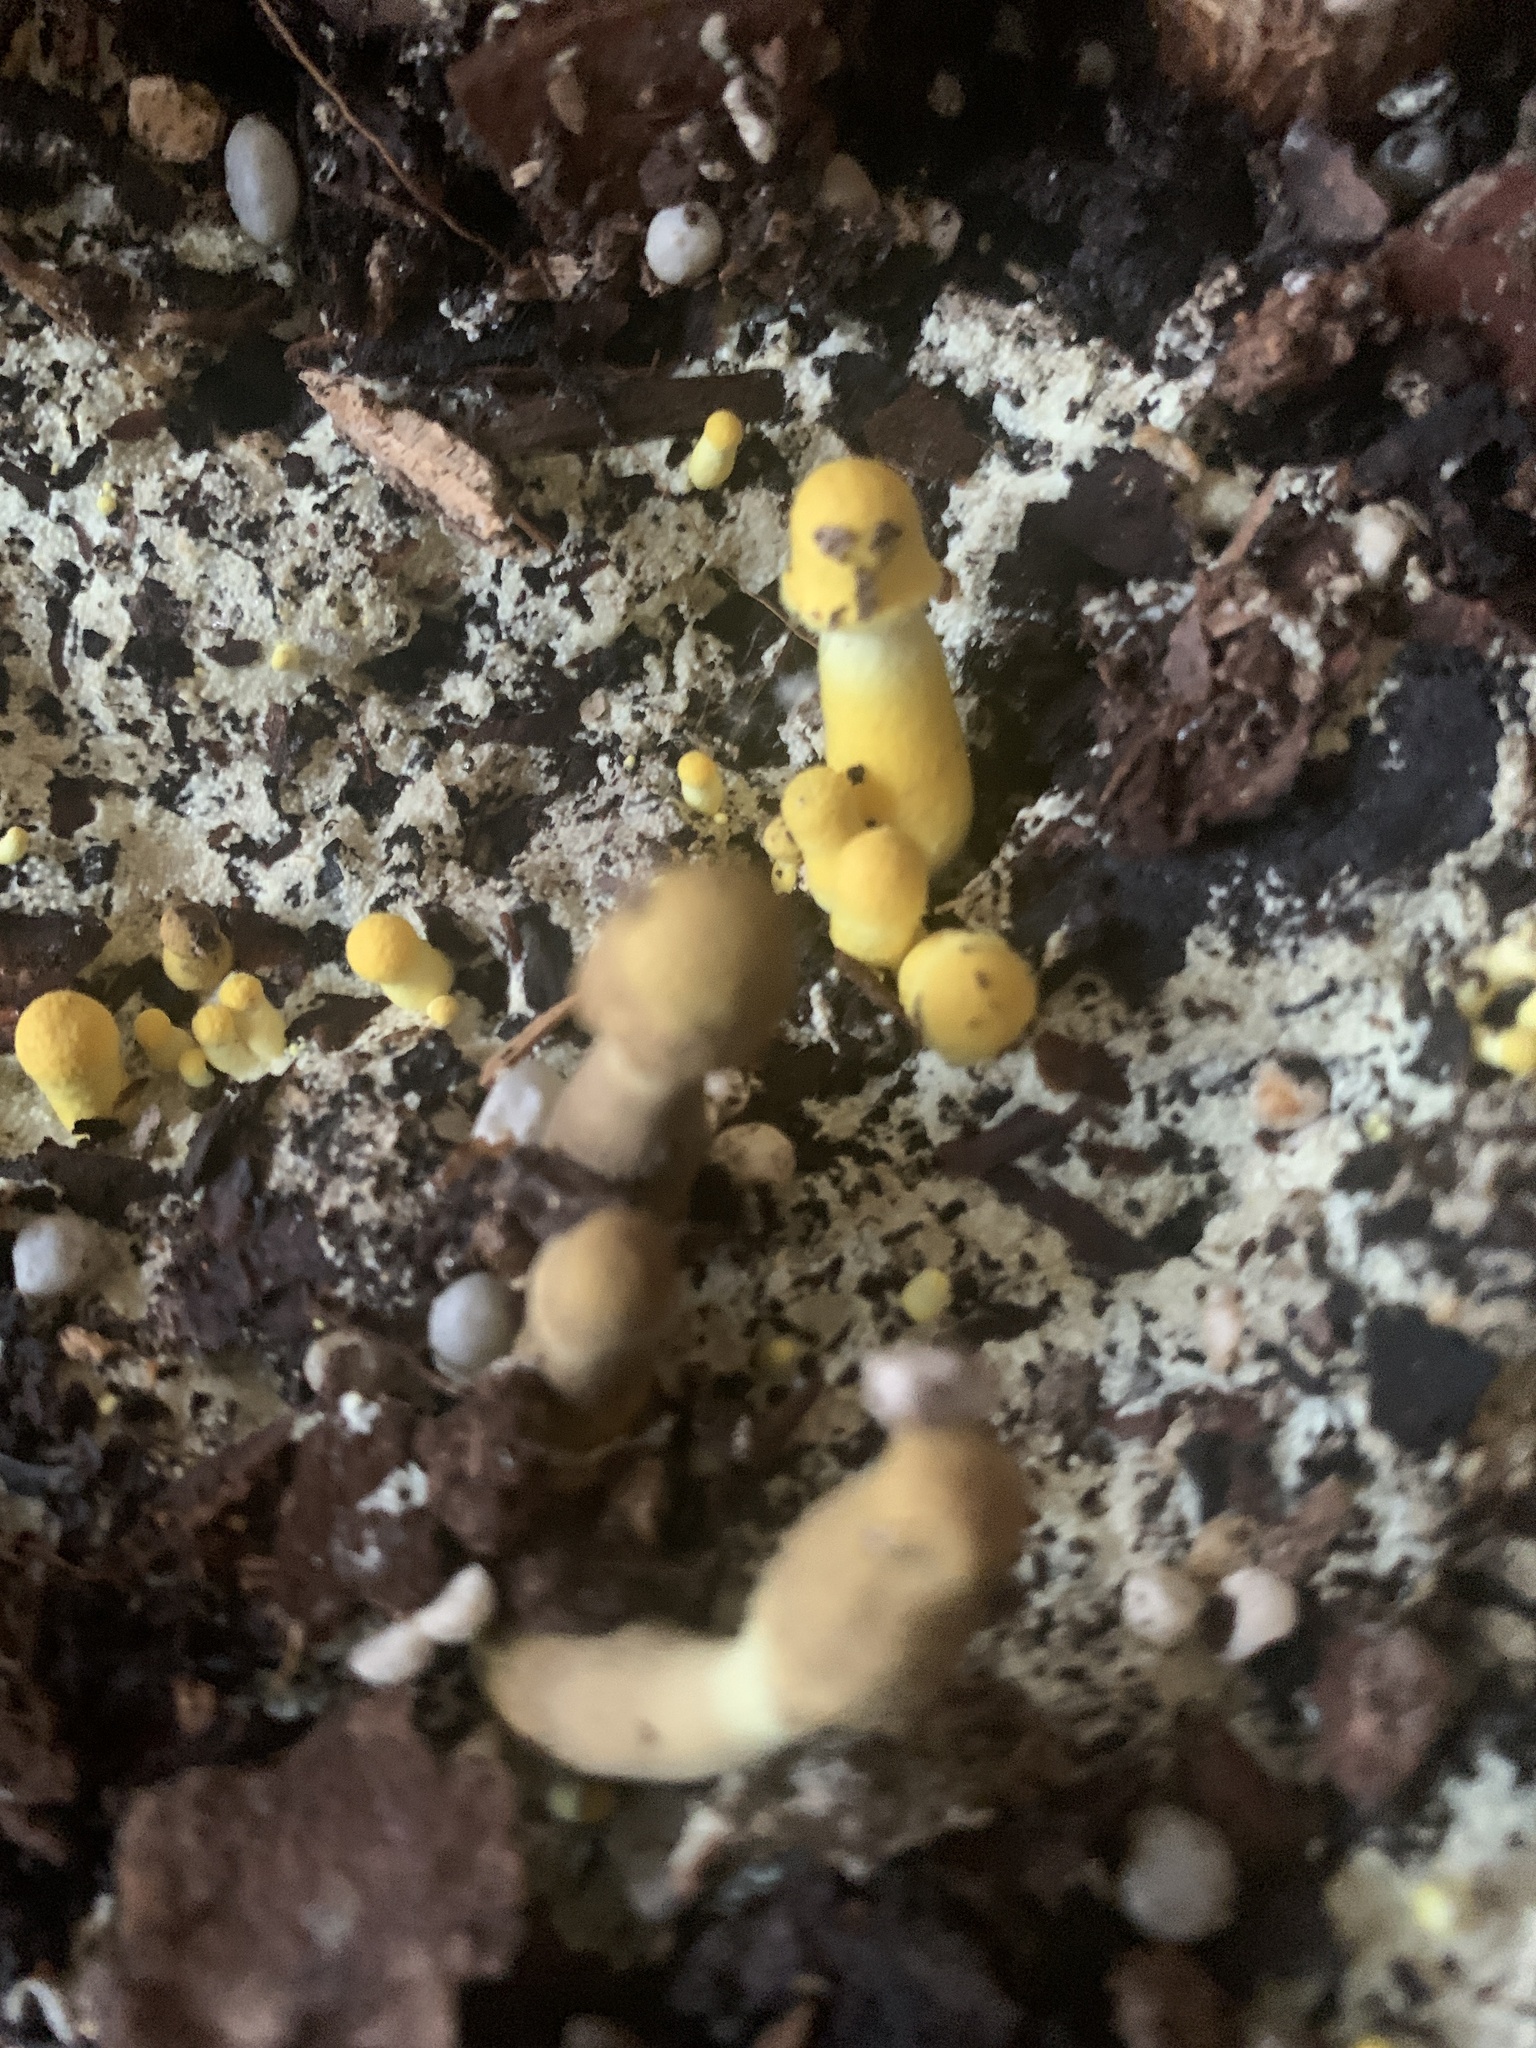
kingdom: Fungi
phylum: Basidiomycota
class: Agaricomycetes
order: Agaricales
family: Agaricaceae
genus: Leucocoprinus
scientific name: Leucocoprinus birnbaumii
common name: Plantpot dapperling
